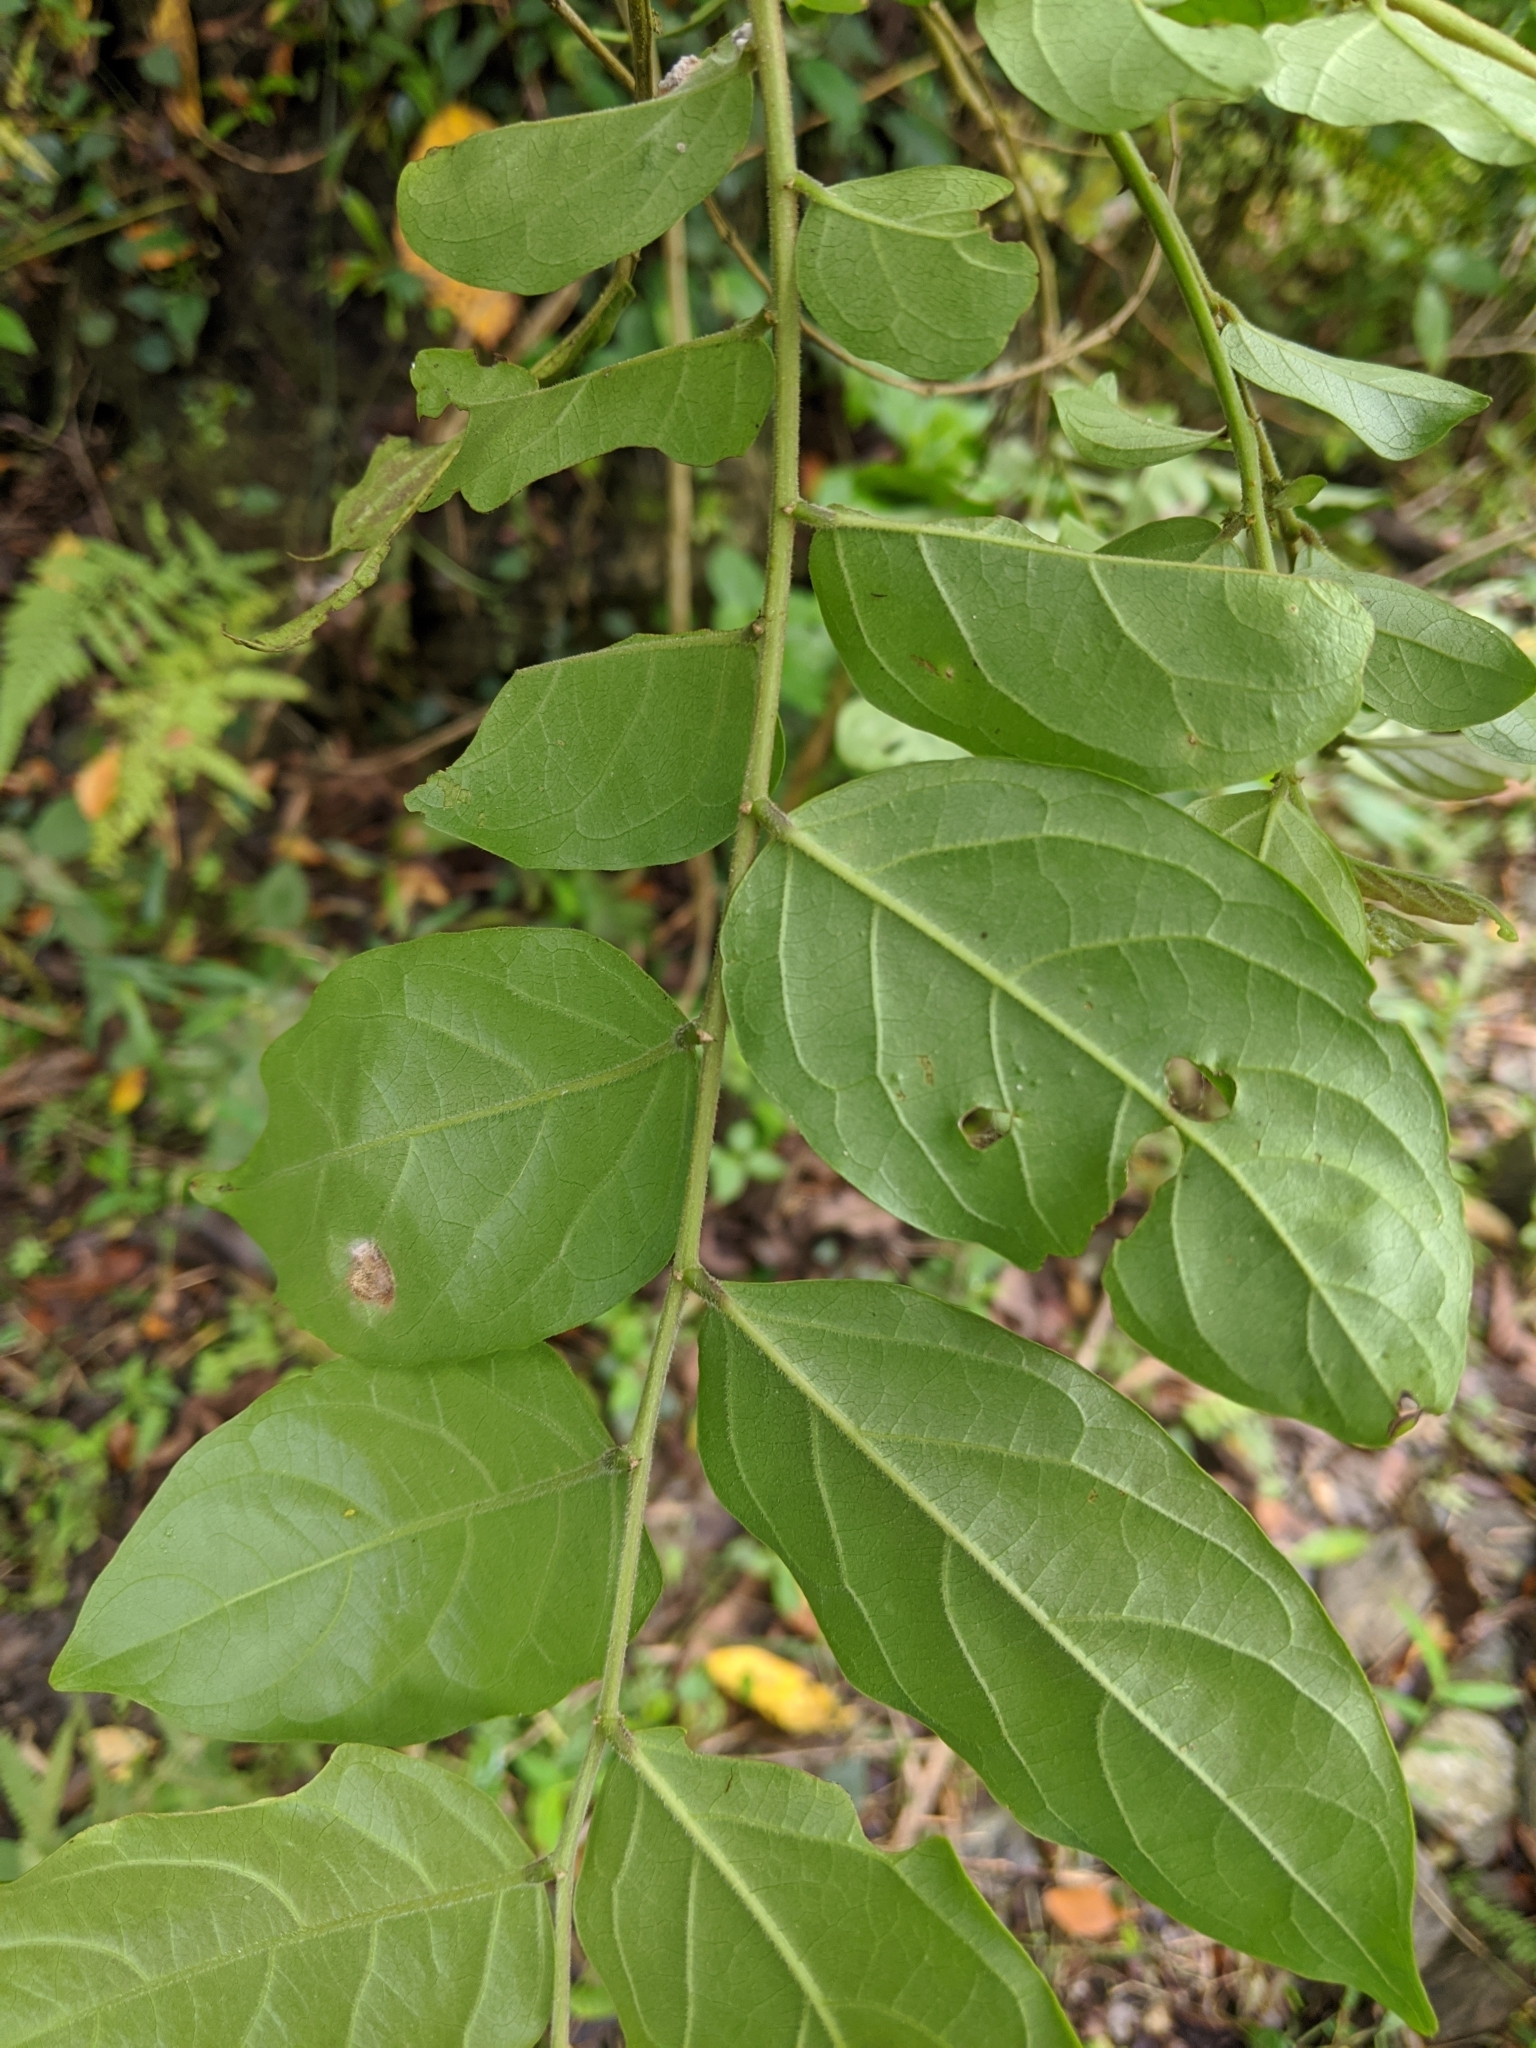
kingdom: Plantae
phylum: Tracheophyta
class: Magnoliopsida
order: Malpighiales
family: Phyllanthaceae
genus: Glochidion
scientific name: Glochidion philippicum
